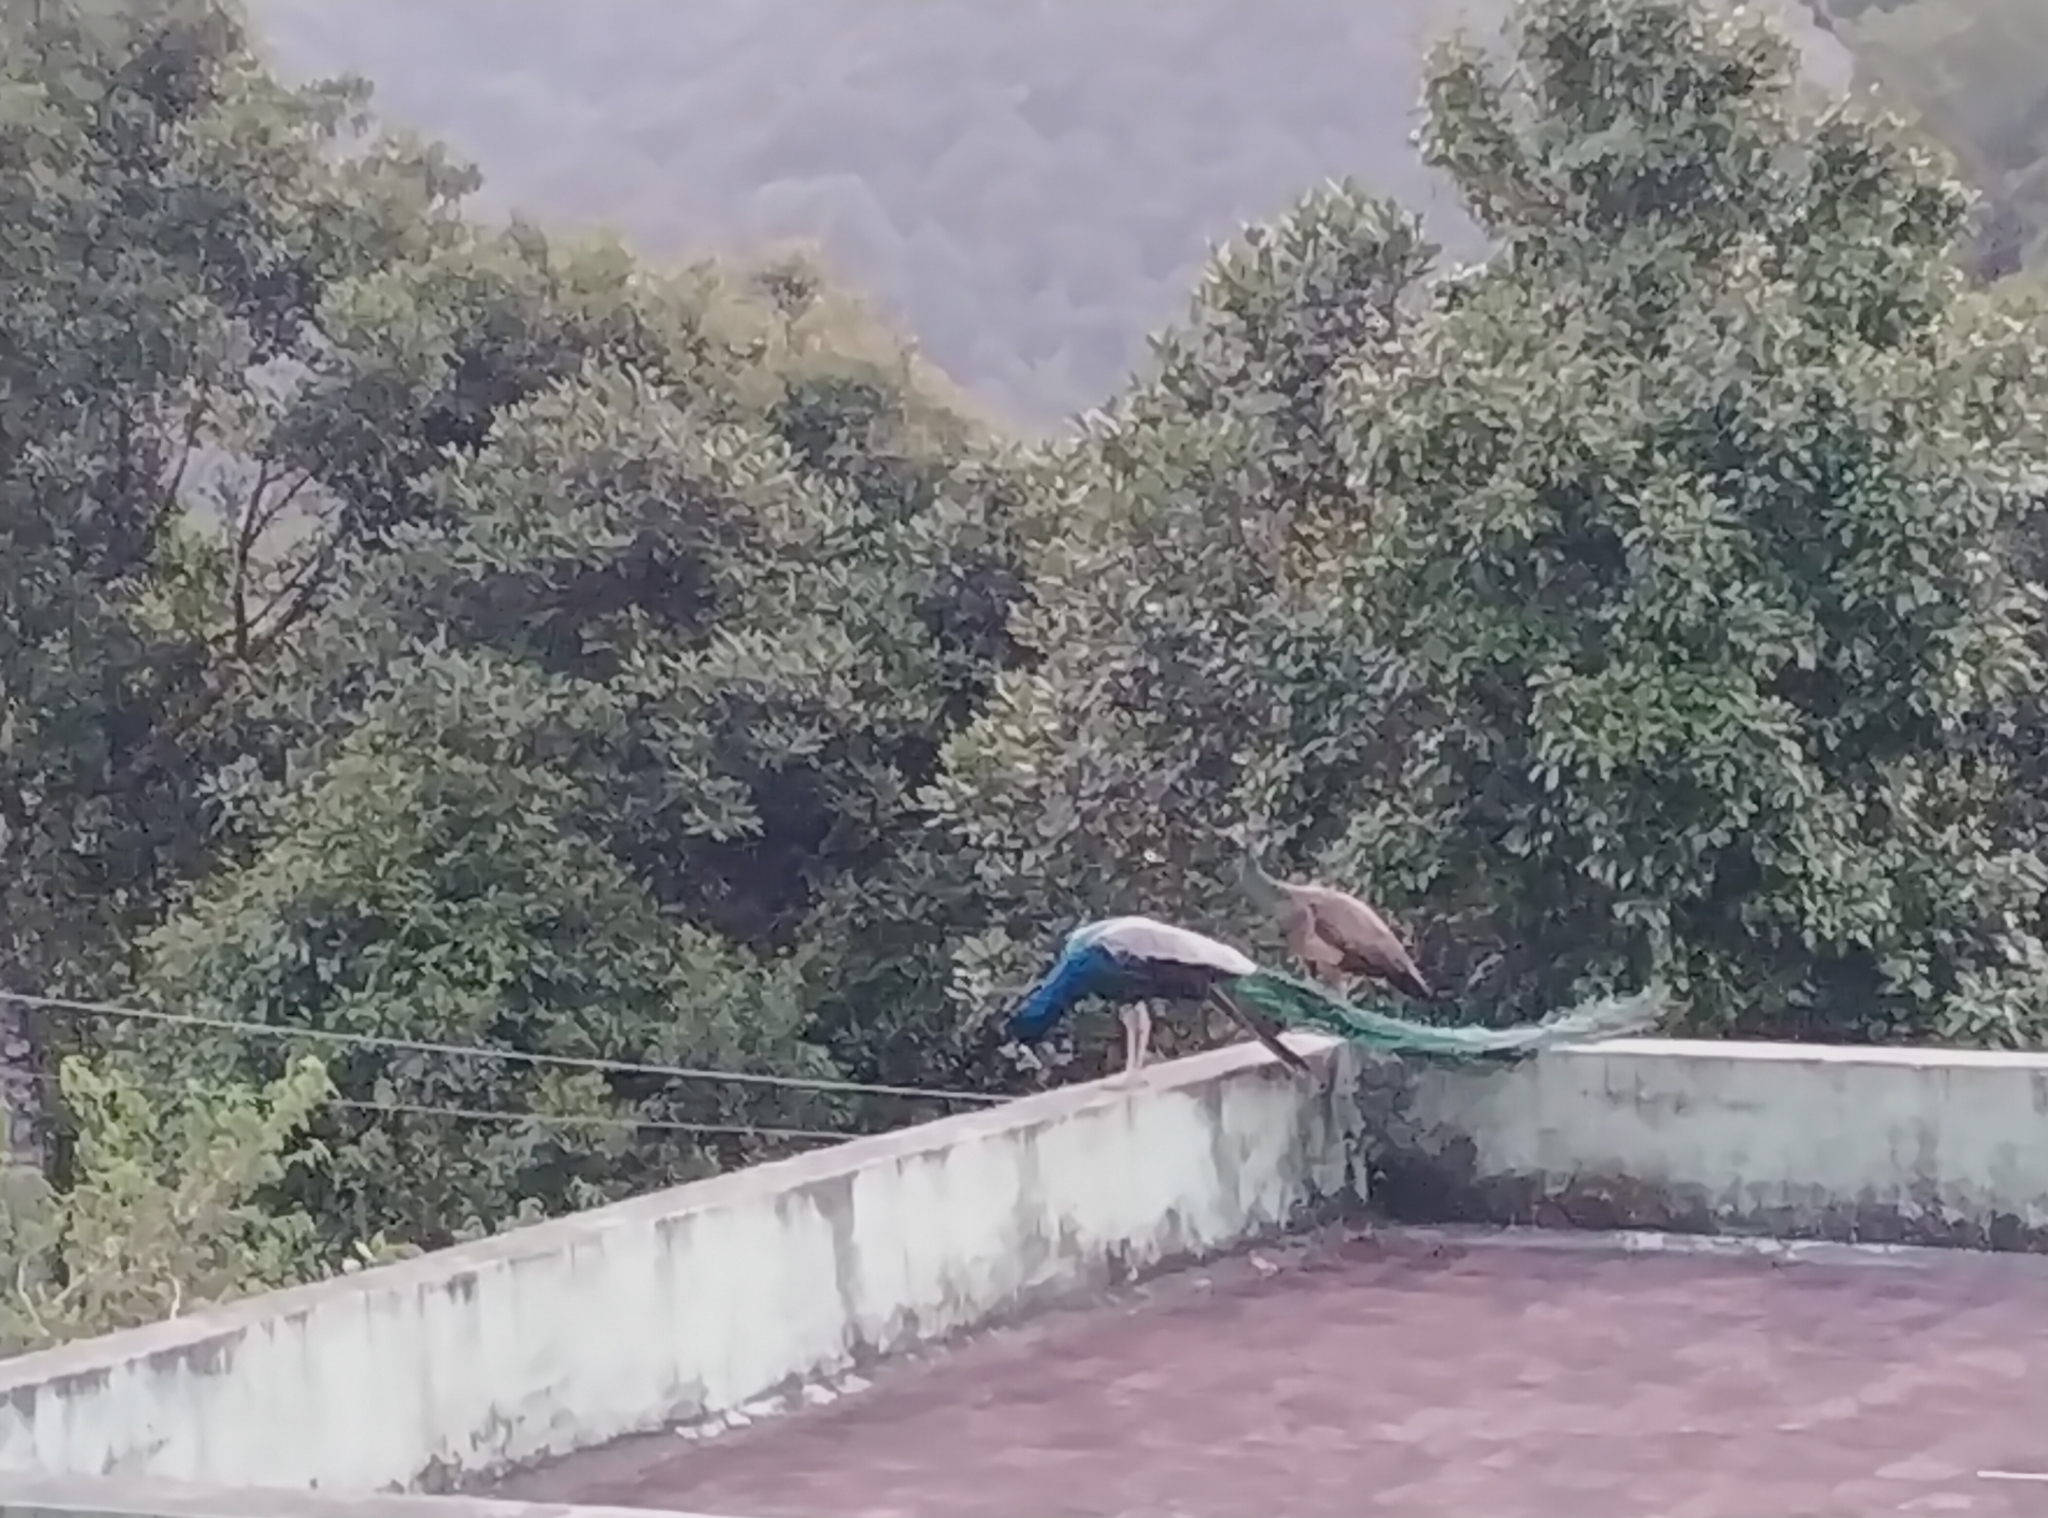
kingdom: Animalia
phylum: Chordata
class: Aves
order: Galliformes
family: Phasianidae
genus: Pavo
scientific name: Pavo cristatus
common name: Indian peafowl
